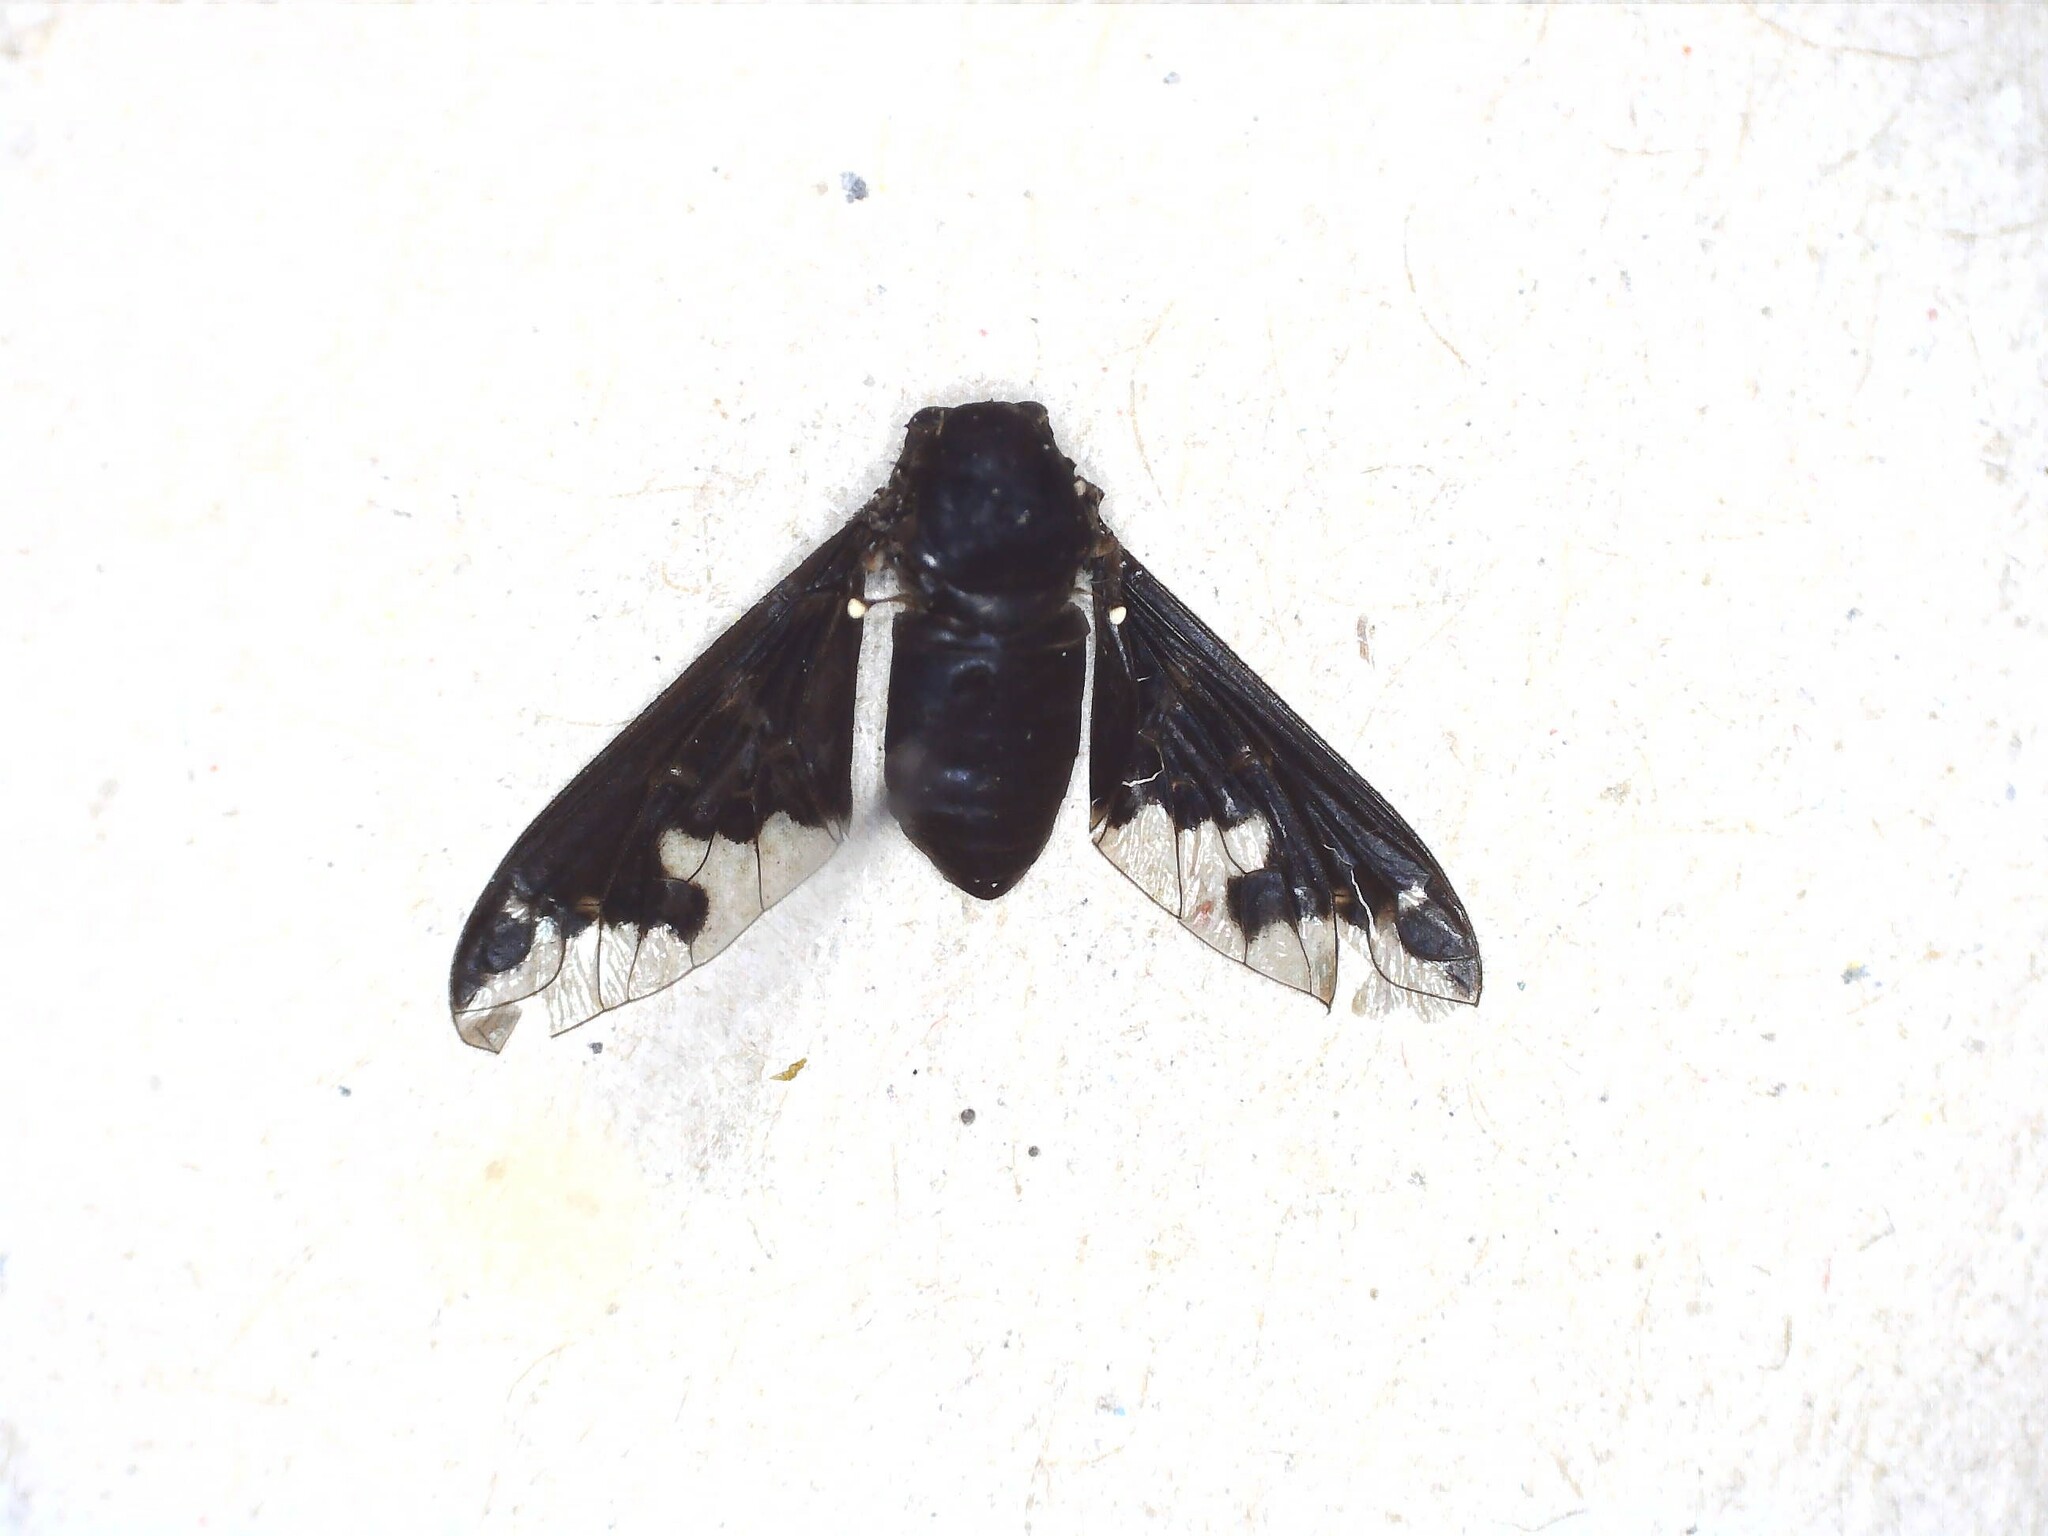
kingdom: Animalia
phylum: Arthropoda
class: Insecta
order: Diptera
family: Bombyliidae
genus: Hemipenthes
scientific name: Hemipenthes maura
